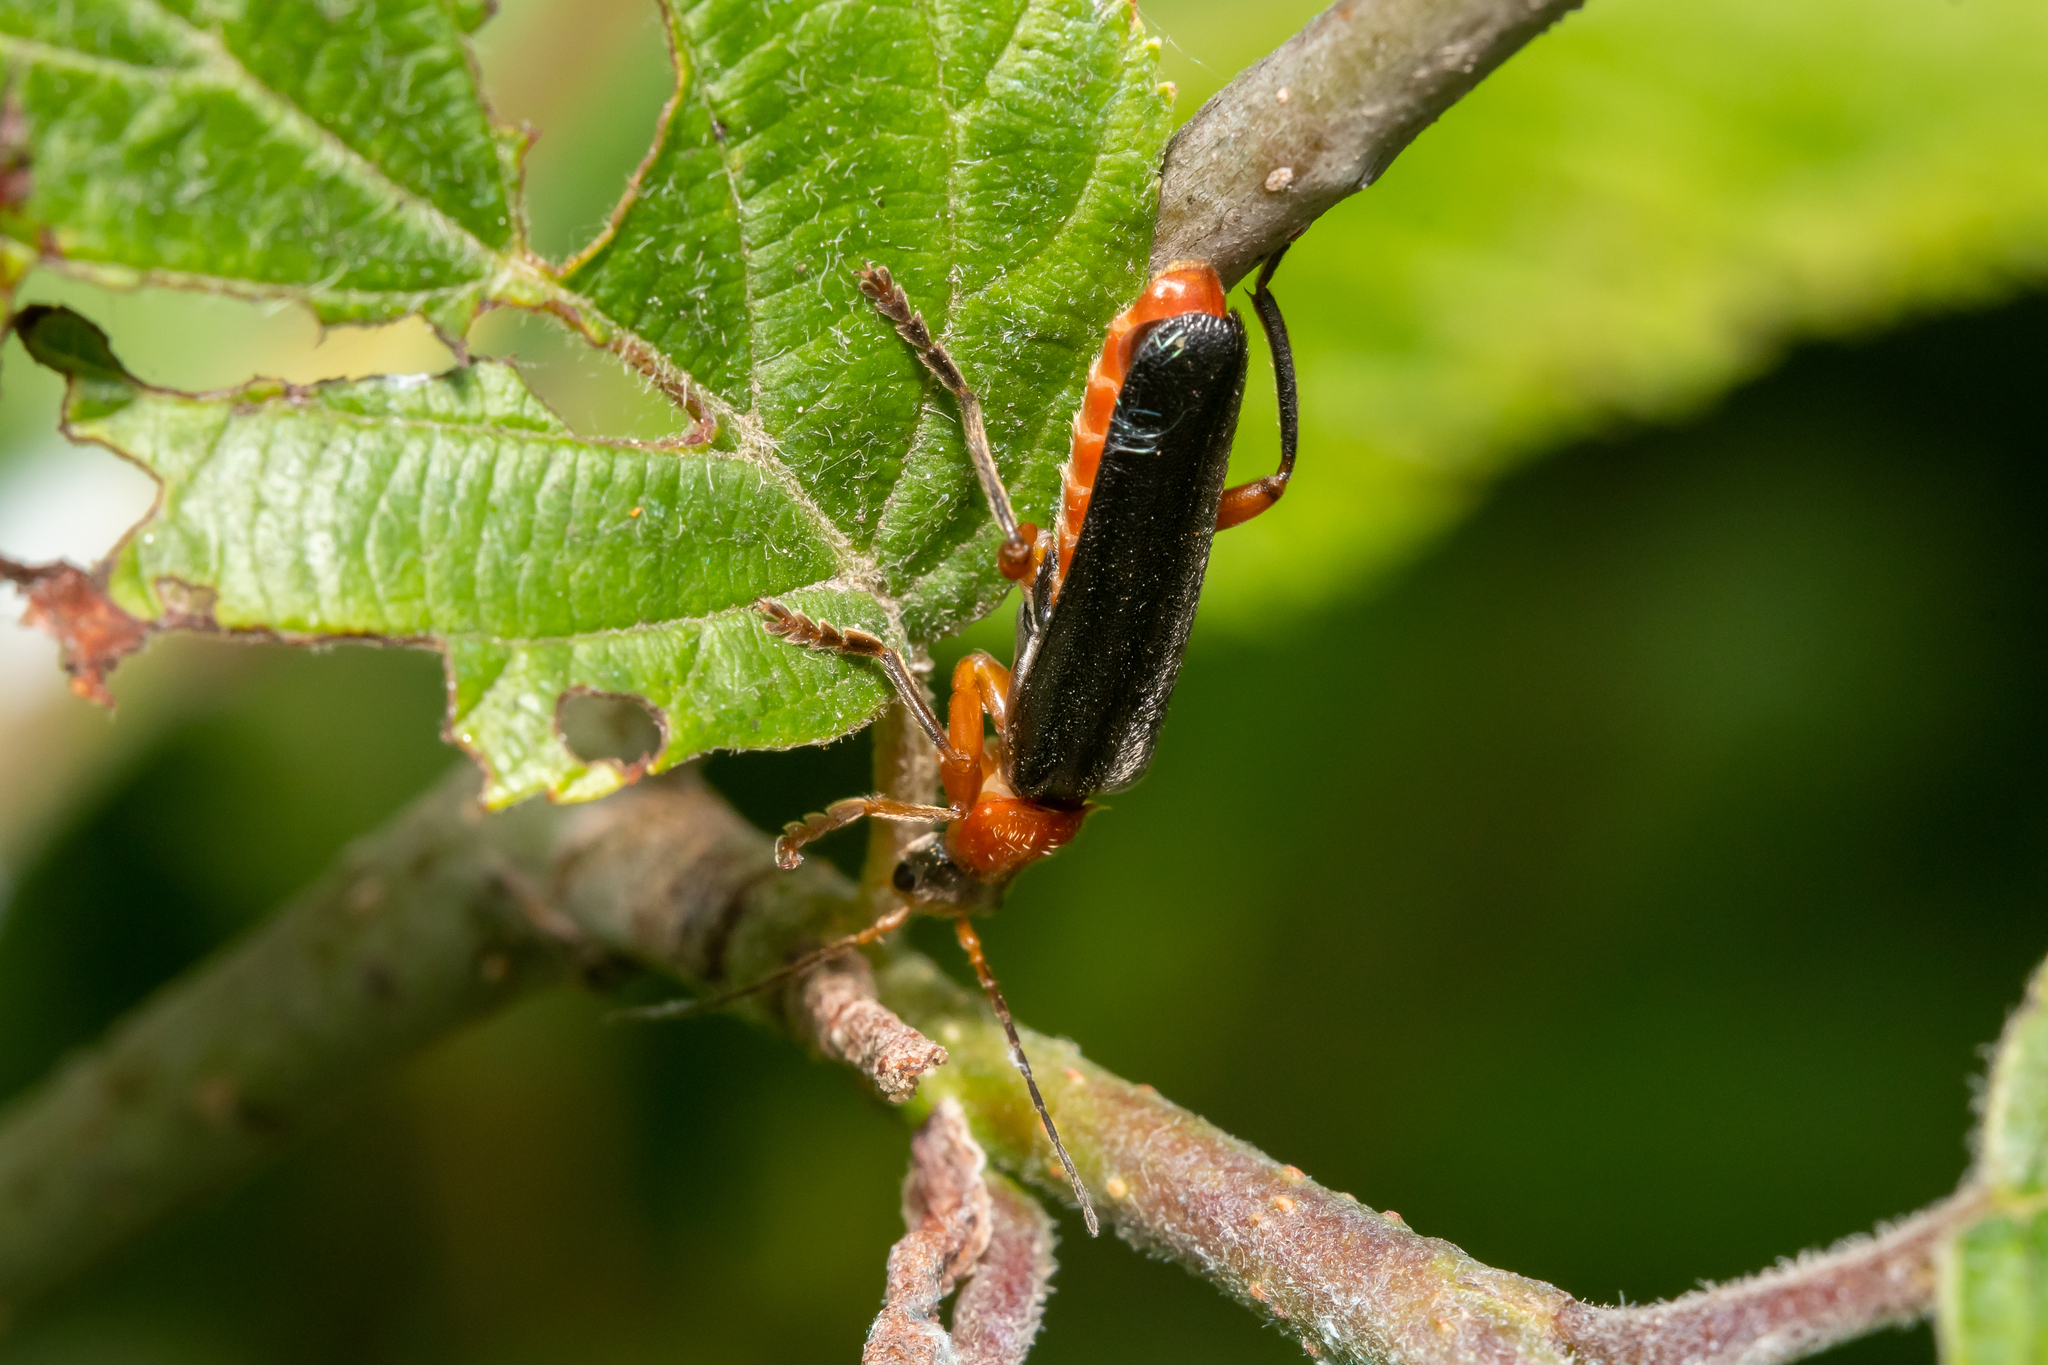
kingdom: Animalia
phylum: Arthropoda
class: Insecta
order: Coleoptera
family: Cantharidae
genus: Cantharis
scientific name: Cantharis pellucida
